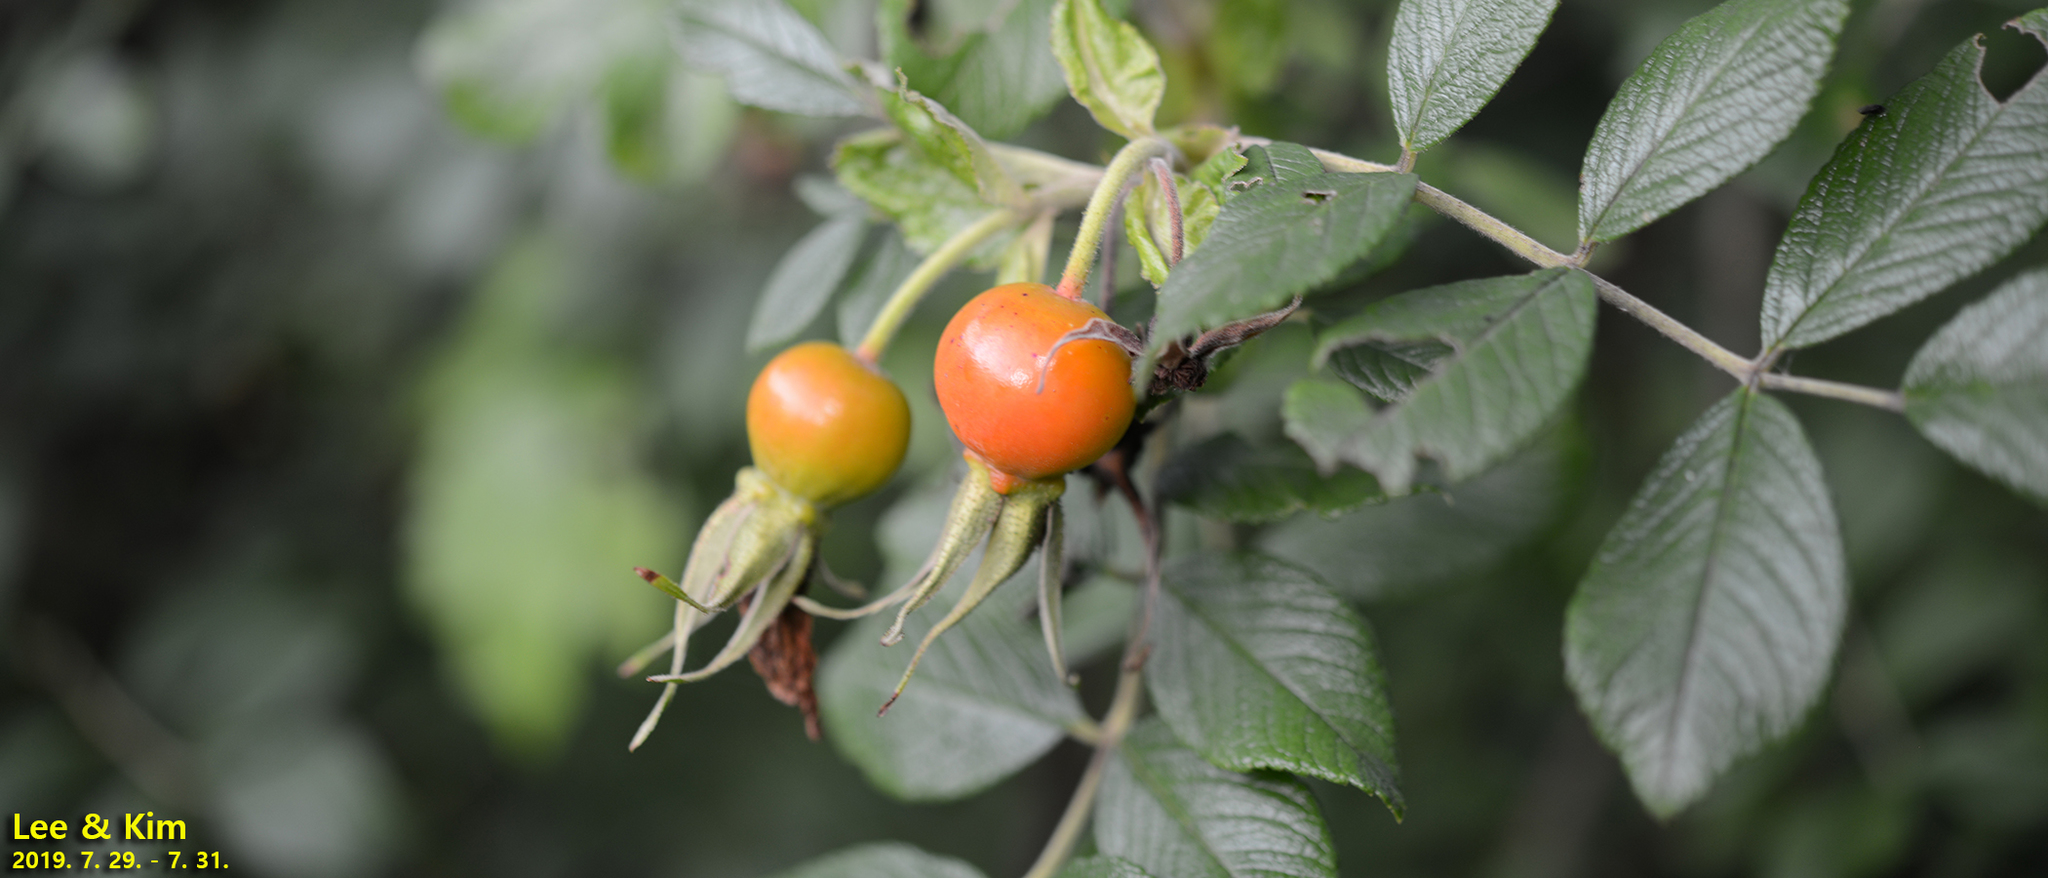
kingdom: Plantae
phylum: Tracheophyta
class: Magnoliopsida
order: Rosales
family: Rosaceae
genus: Rosa
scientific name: Rosa rugosa
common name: Japanese rose
